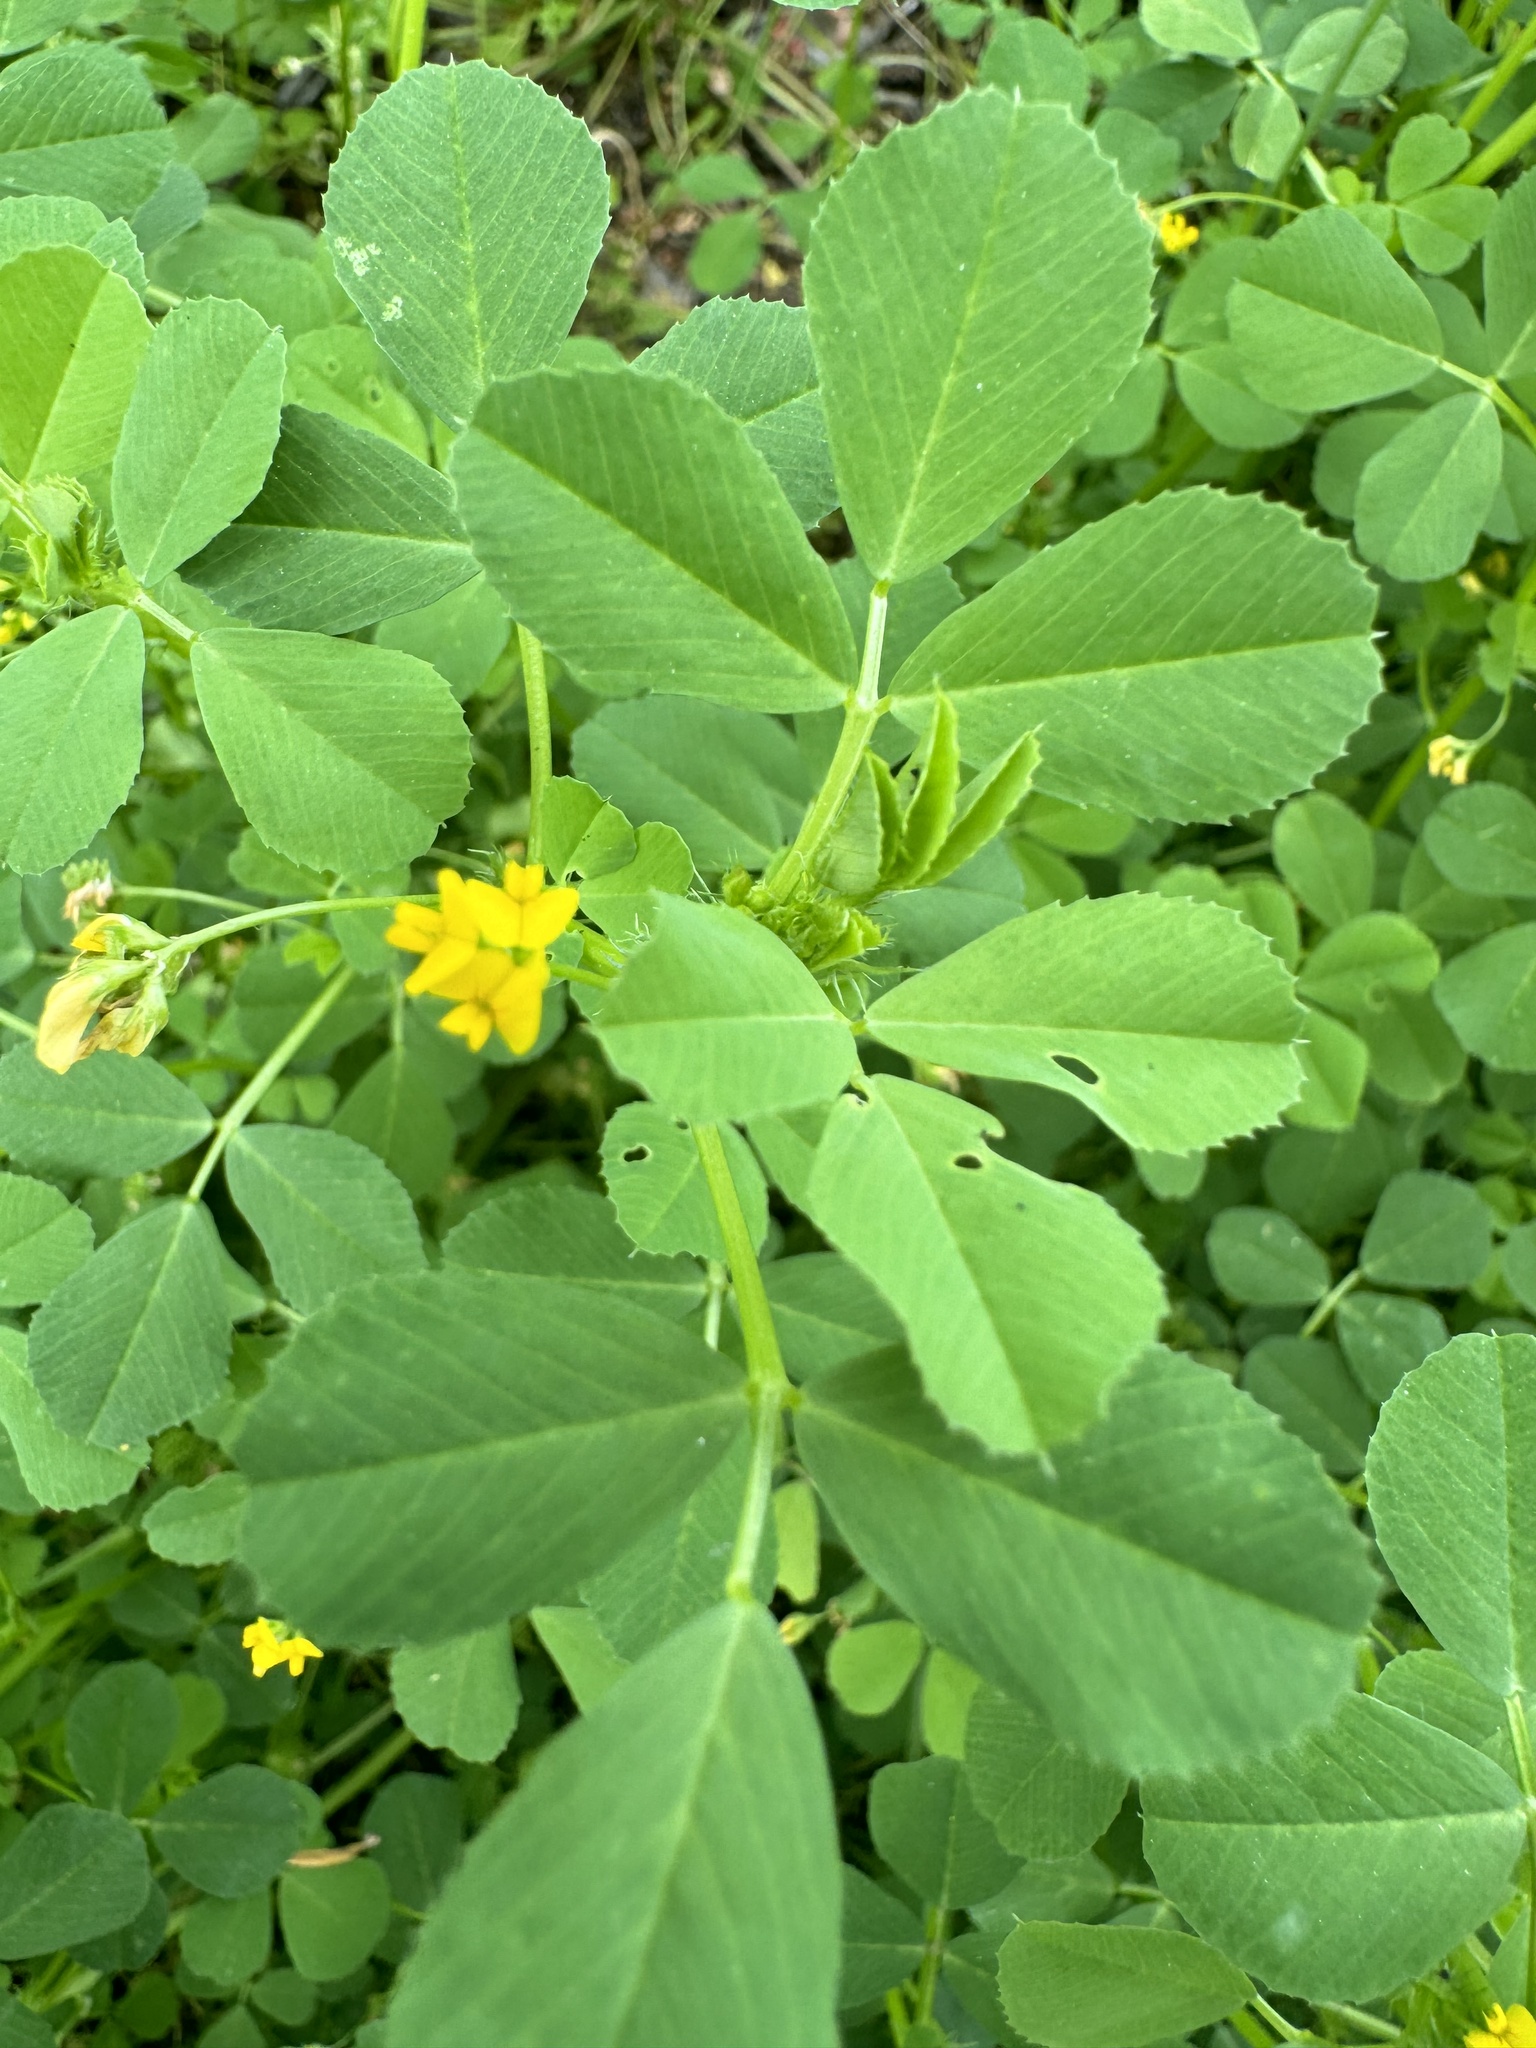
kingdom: Plantae
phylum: Tracheophyta
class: Magnoliopsida
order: Fabales
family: Fabaceae
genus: Medicago
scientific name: Medicago polymorpha
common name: Burclover
